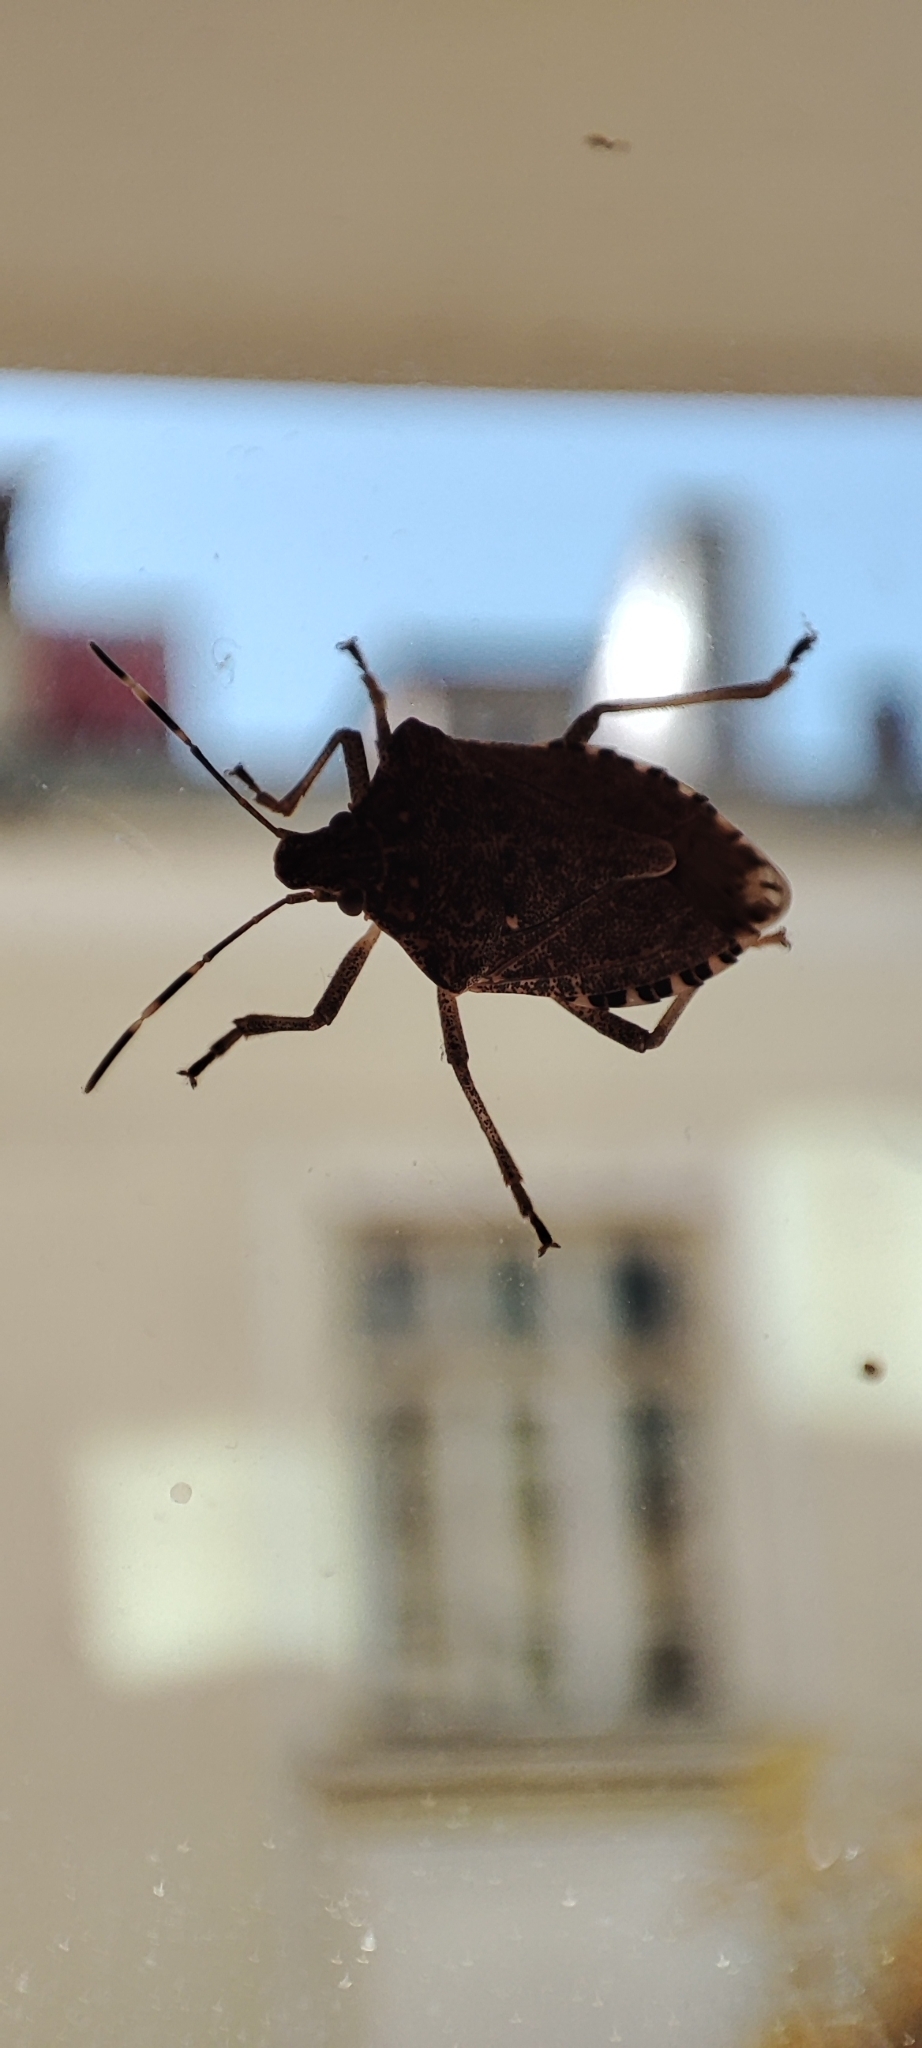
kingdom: Animalia
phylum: Arthropoda
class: Insecta
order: Hemiptera
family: Pentatomidae
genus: Halyomorpha
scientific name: Halyomorpha halys
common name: Brown marmorated stink bug
